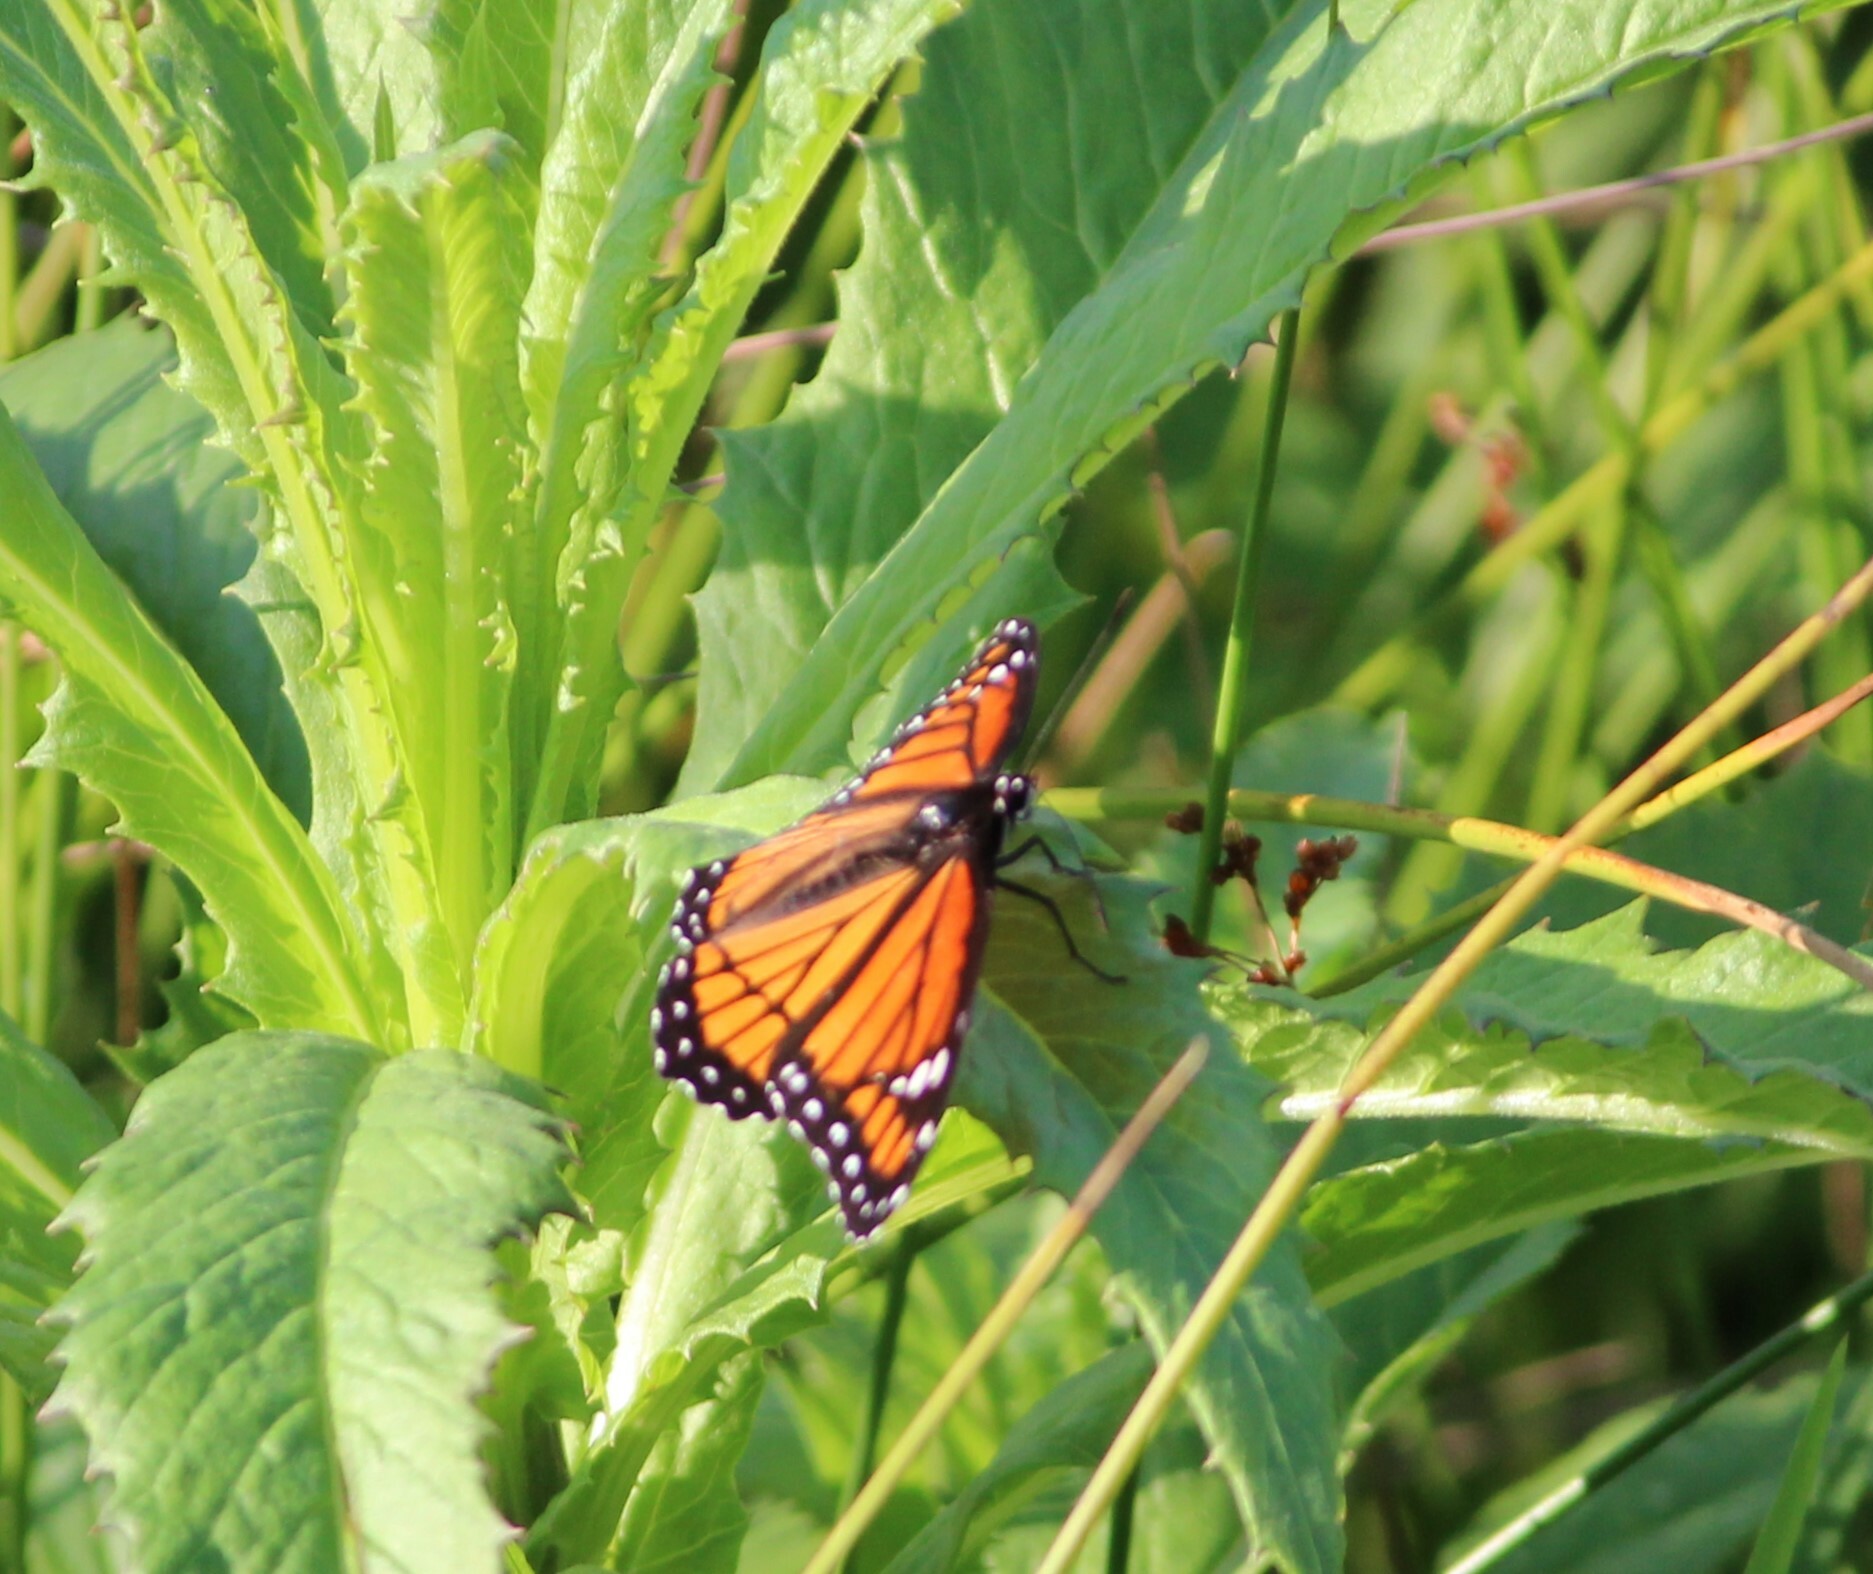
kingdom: Animalia
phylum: Arthropoda
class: Insecta
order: Lepidoptera
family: Nymphalidae
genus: Limenitis
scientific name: Limenitis archippus
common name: Viceroy
